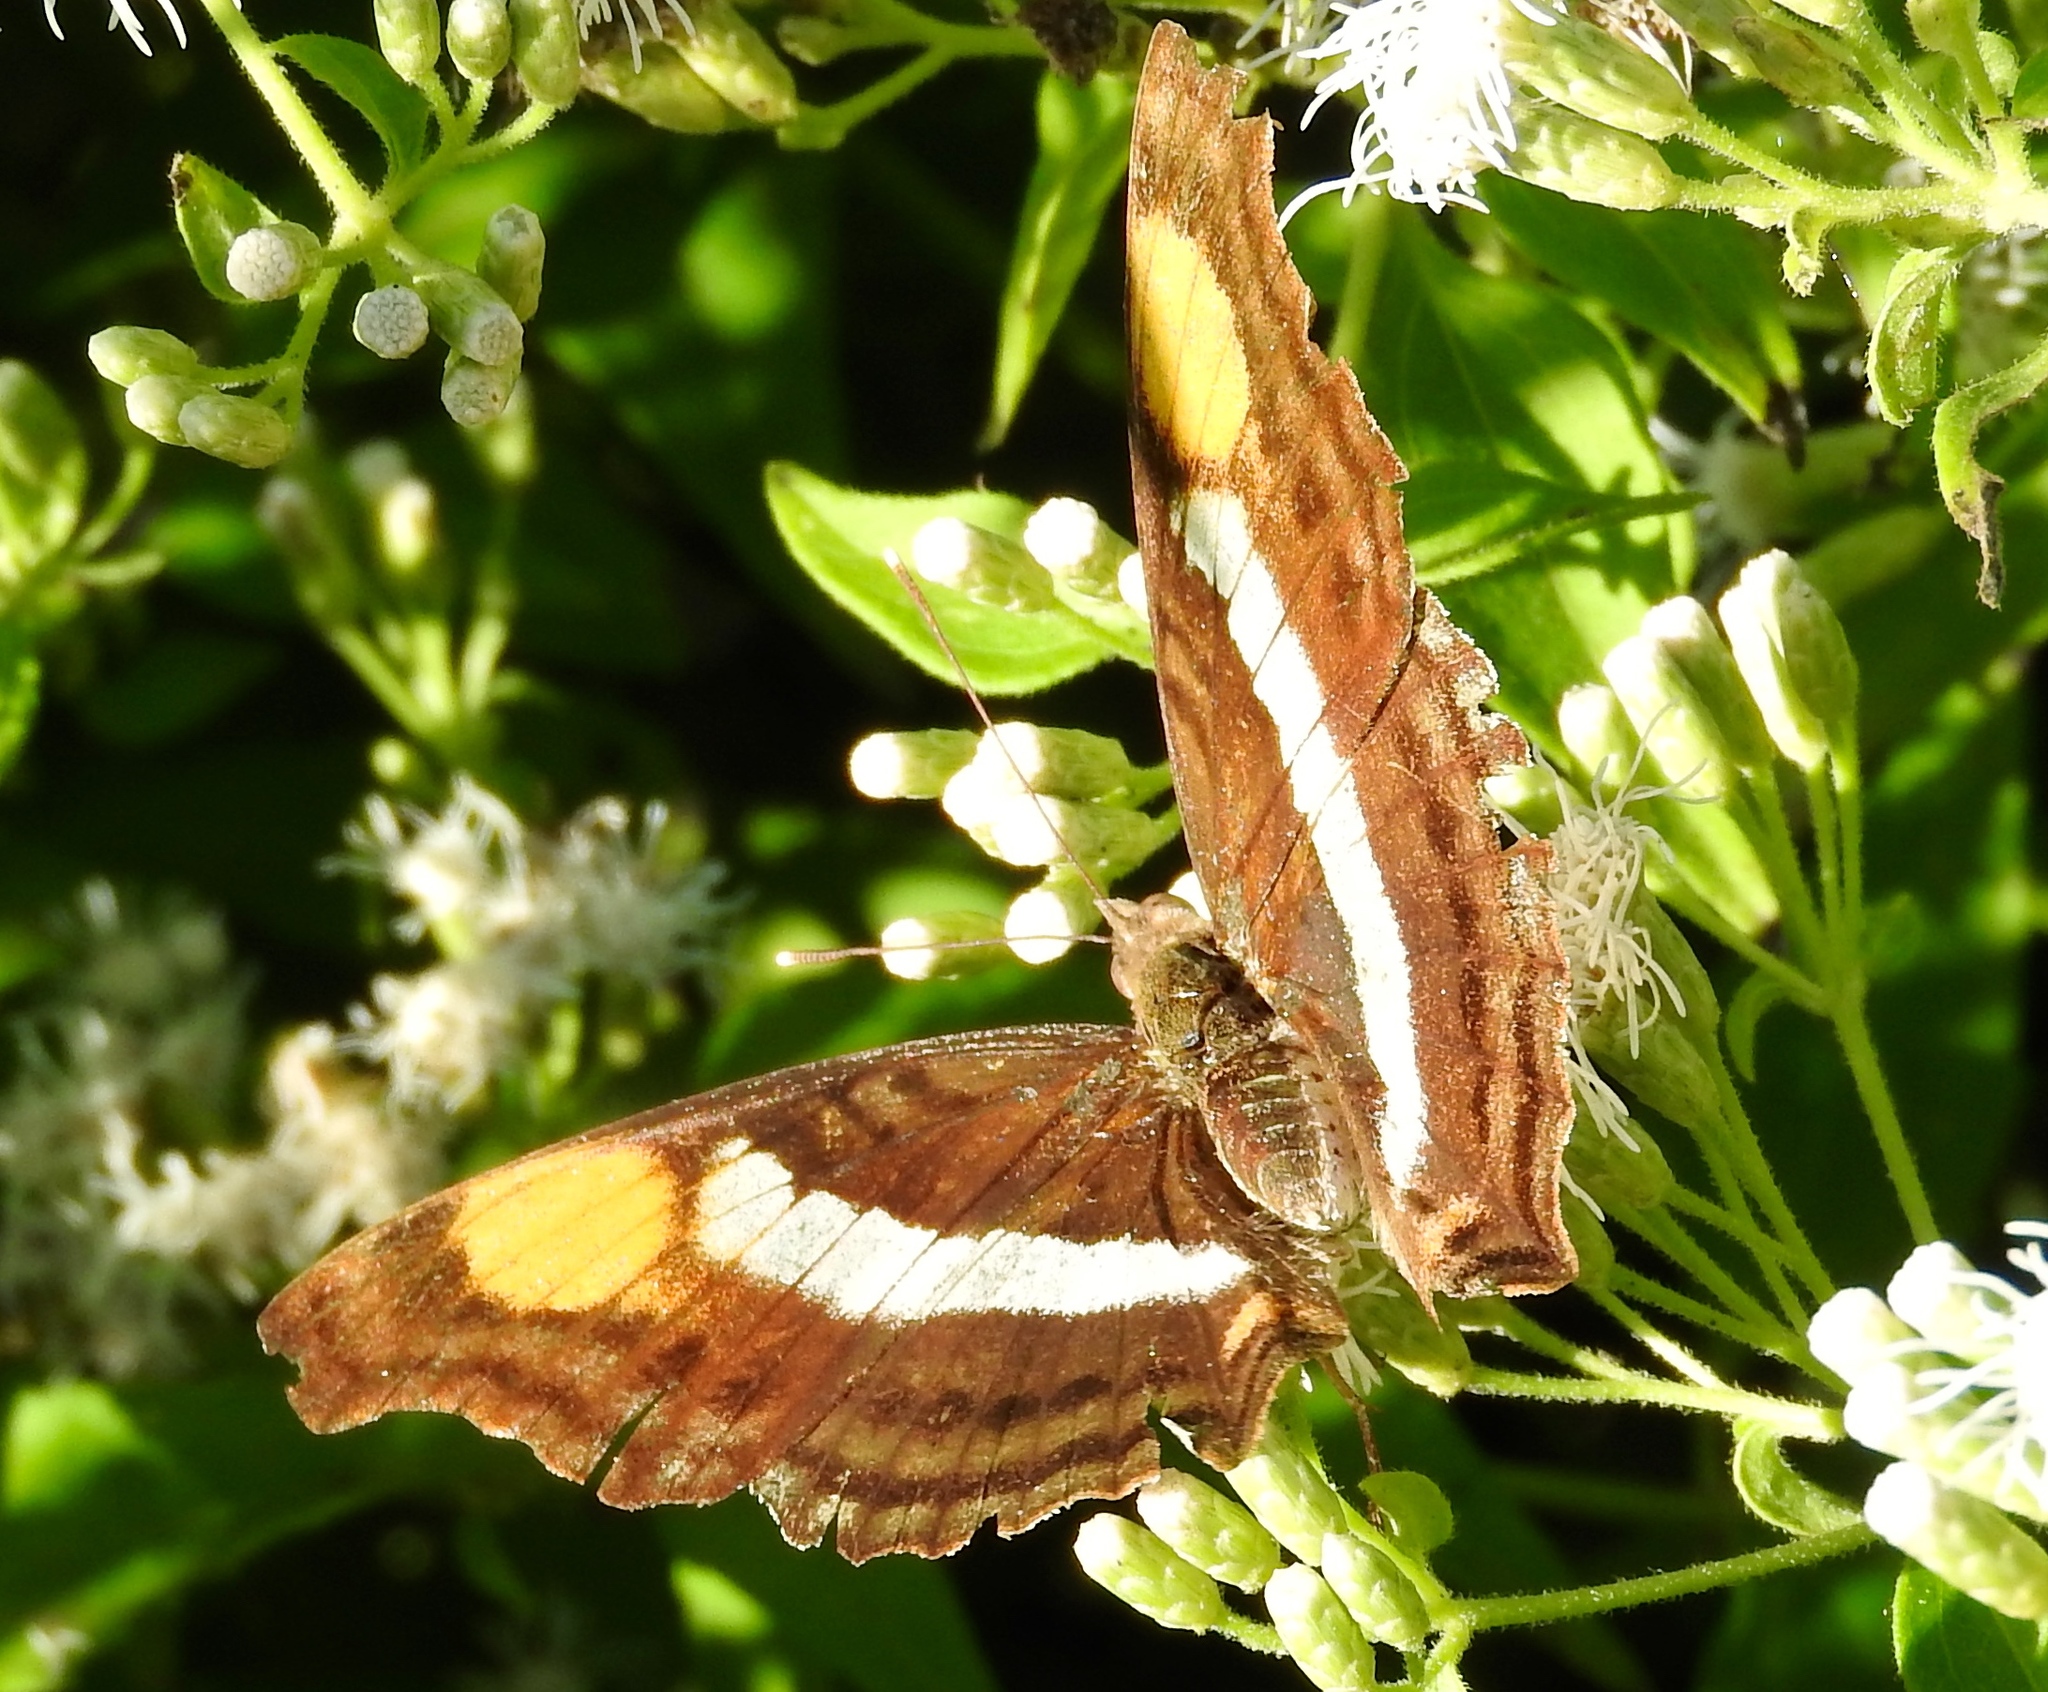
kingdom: Animalia
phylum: Arthropoda
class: Insecta
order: Lepidoptera
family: Nymphalidae
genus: Doxocopa
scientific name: Doxocopa
